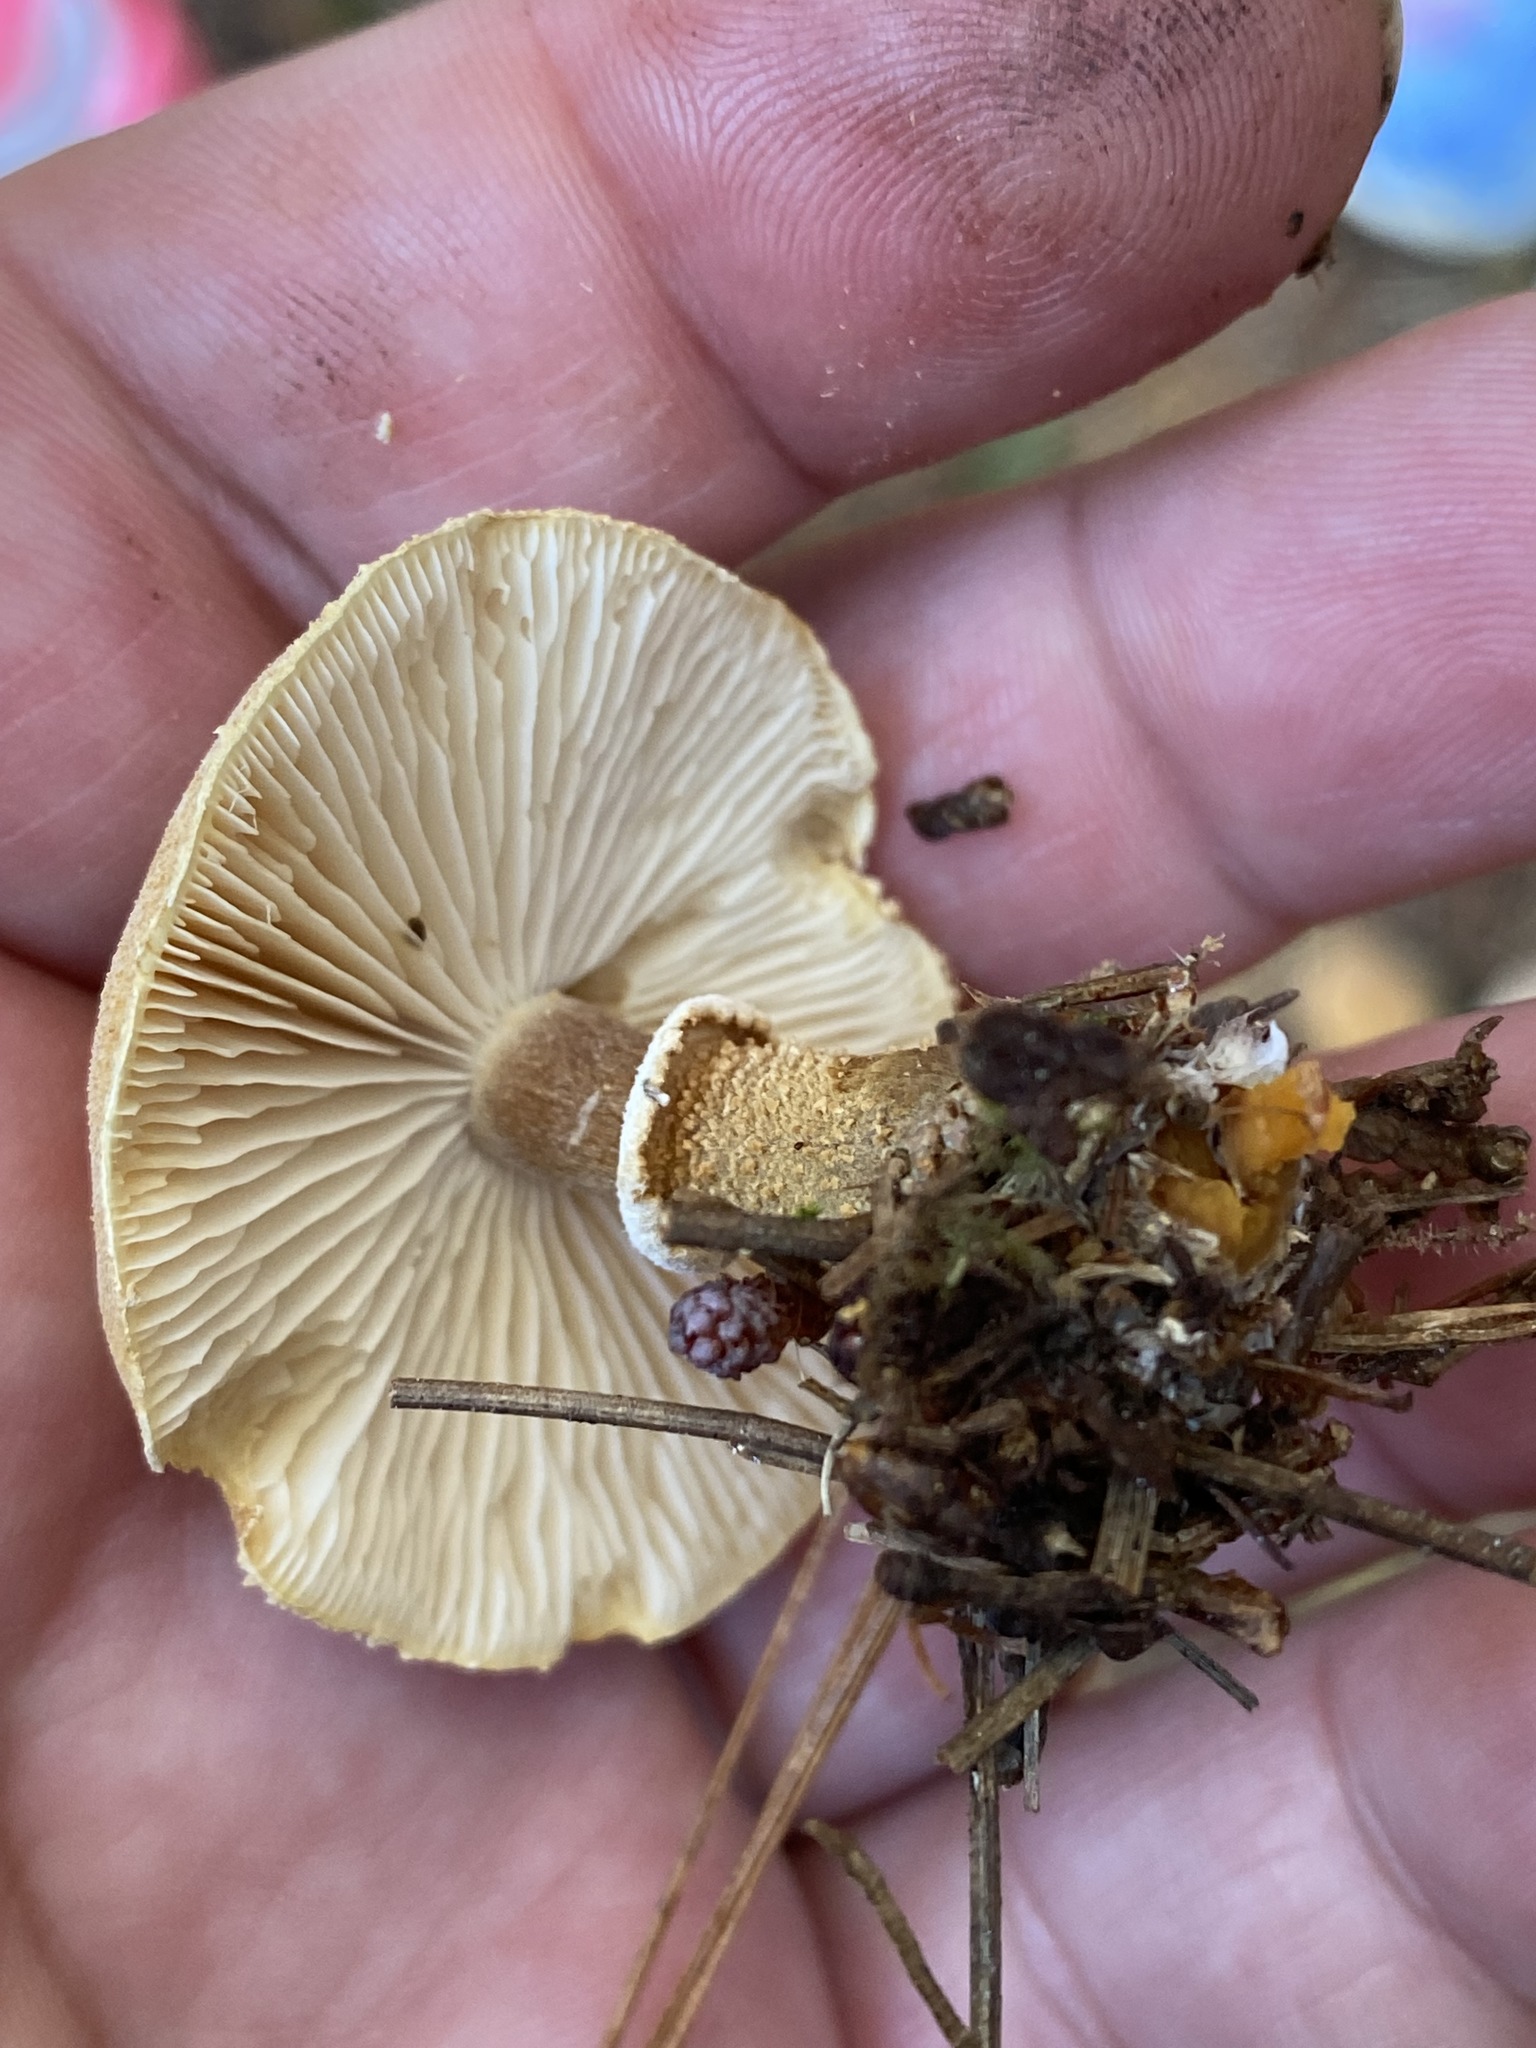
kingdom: Fungi
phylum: Basidiomycota
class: Agaricomycetes
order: Agaricales
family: Tricholomataceae
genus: Cystoderma
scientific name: Cystoderma amianthinum
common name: Earthy powdercap
